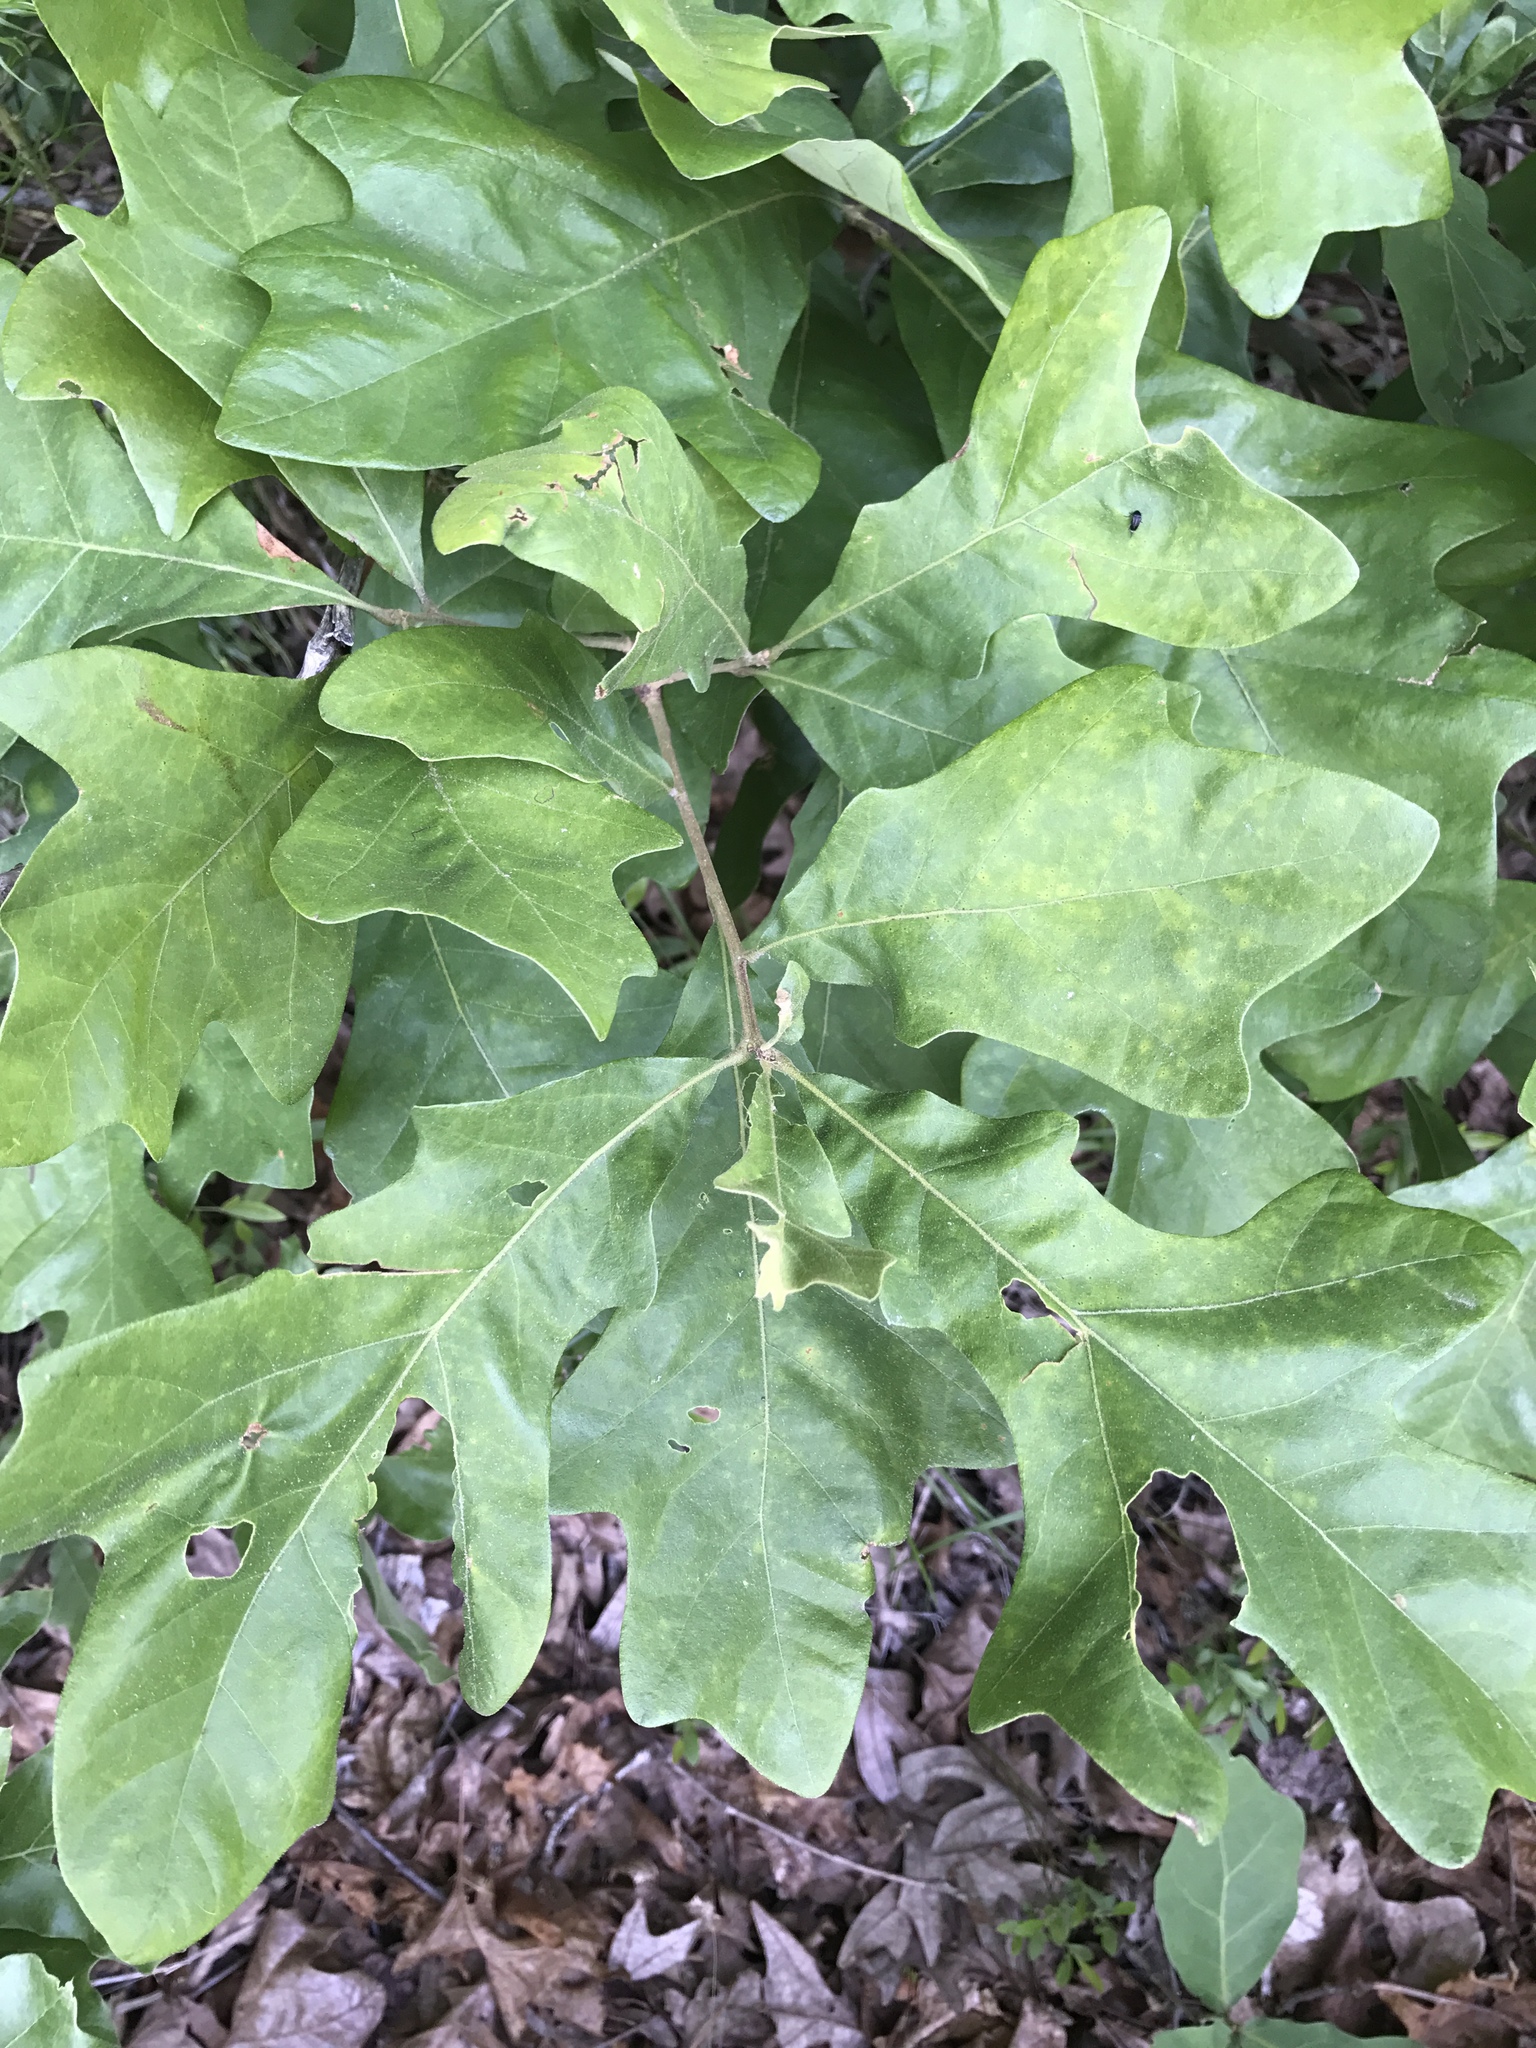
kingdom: Plantae
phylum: Tracheophyta
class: Magnoliopsida
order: Fagales
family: Fagaceae
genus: Quercus
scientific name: Quercus stellata
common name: Post oak
